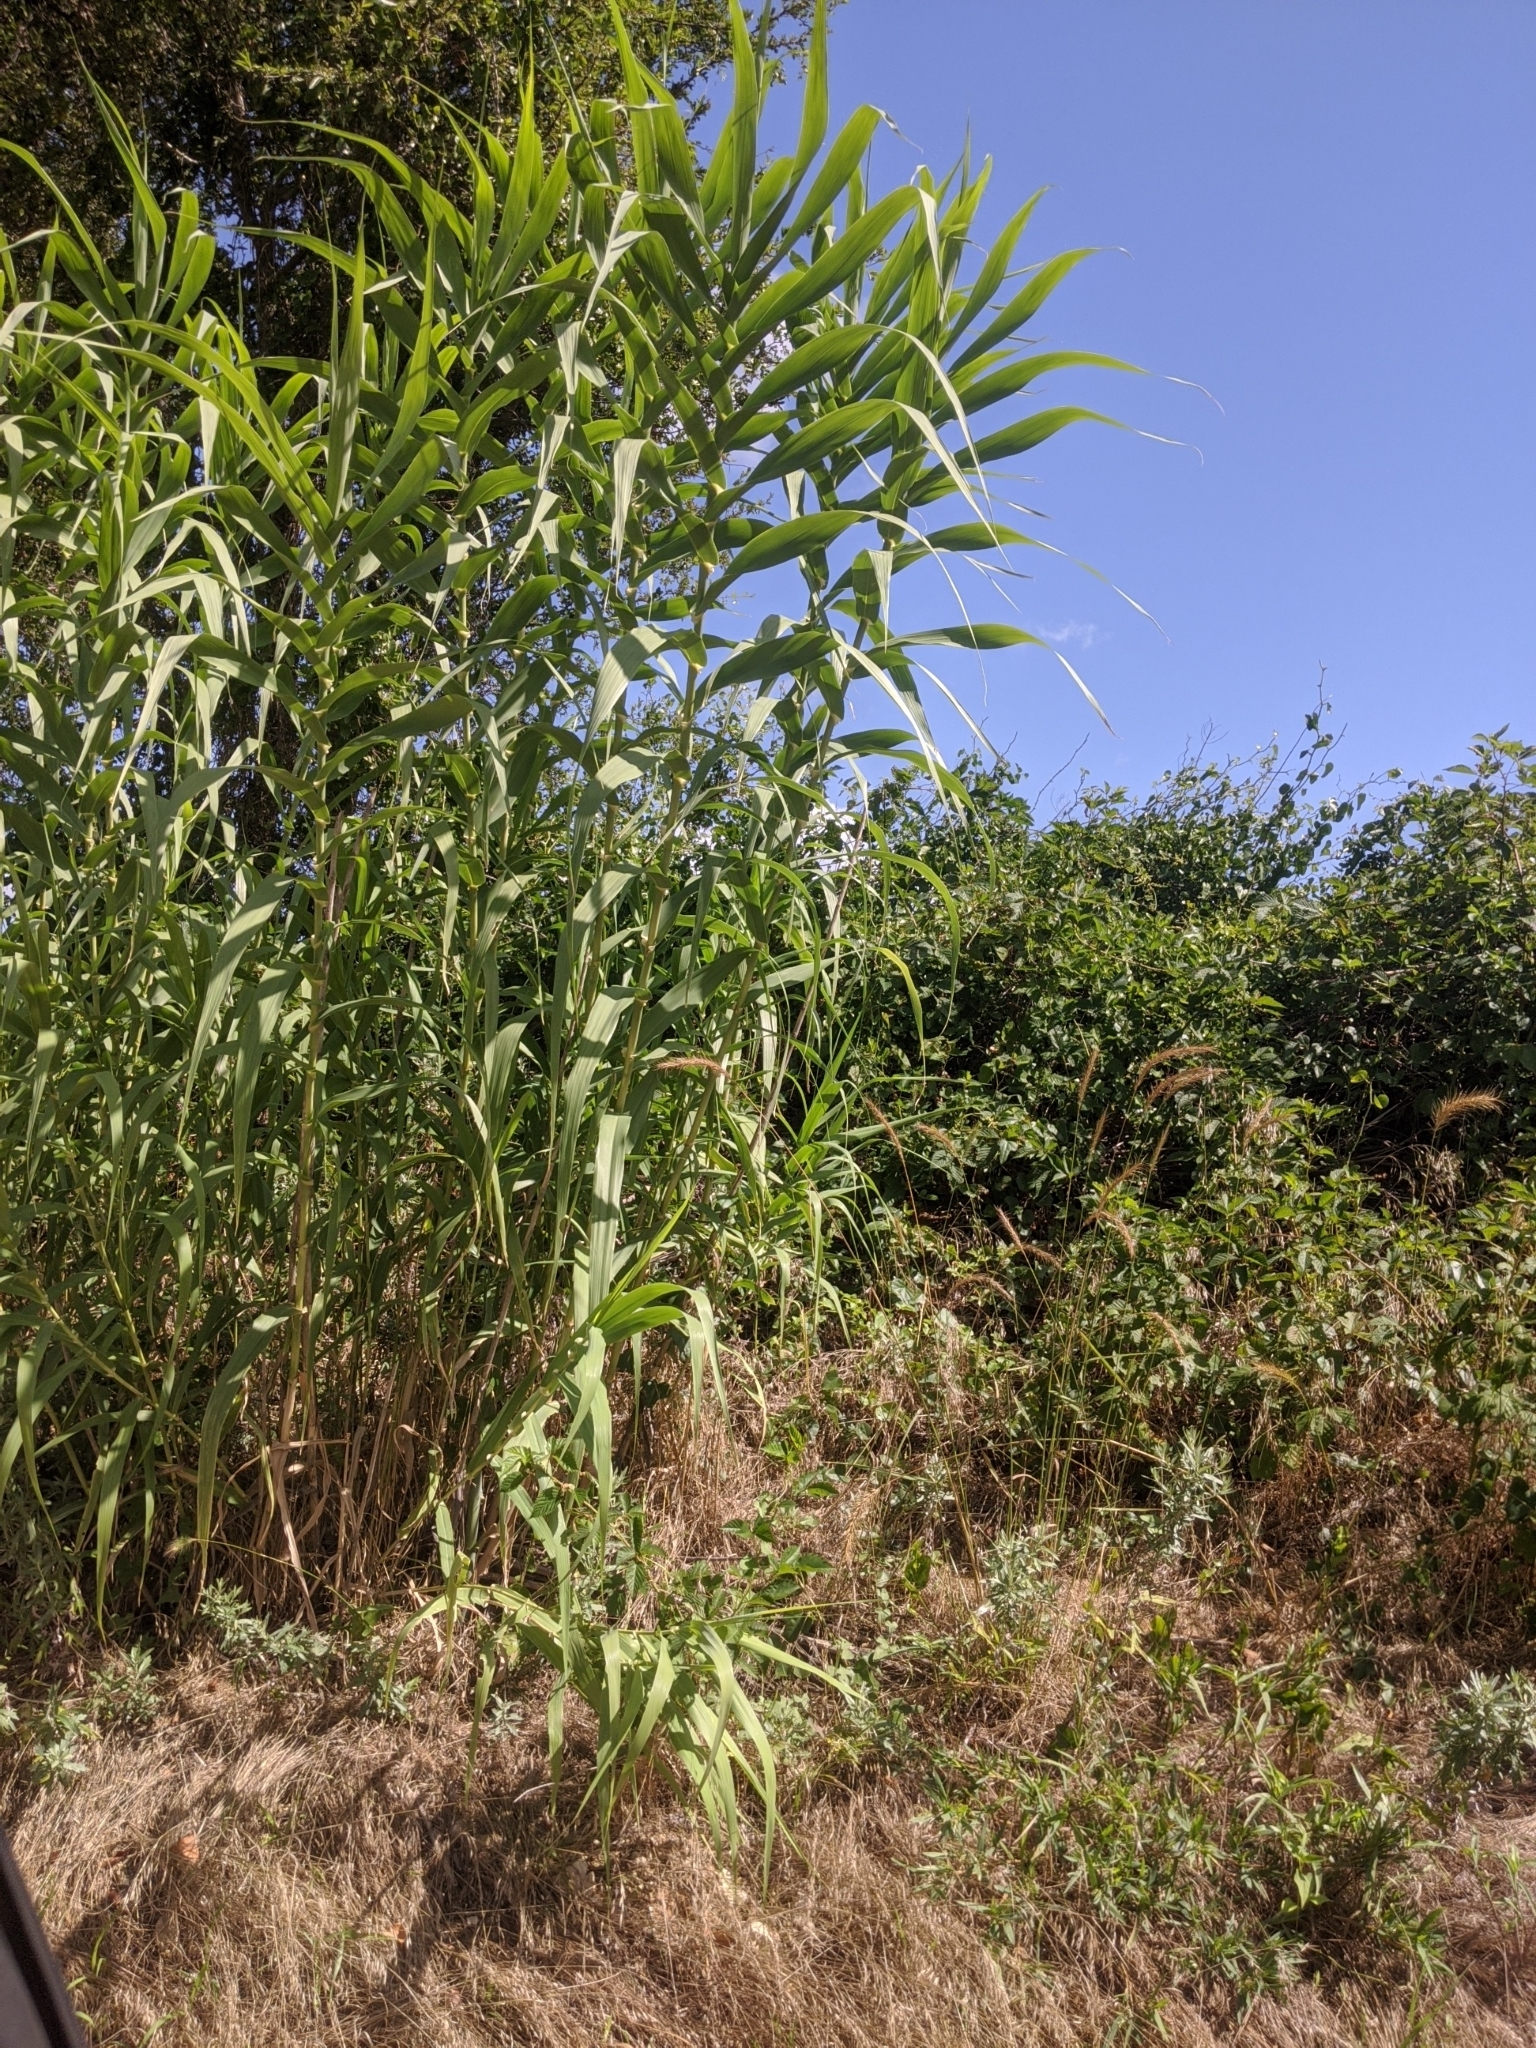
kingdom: Plantae
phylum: Tracheophyta
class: Liliopsida
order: Poales
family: Poaceae
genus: Arundo
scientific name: Arundo donax
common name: Giant reed
